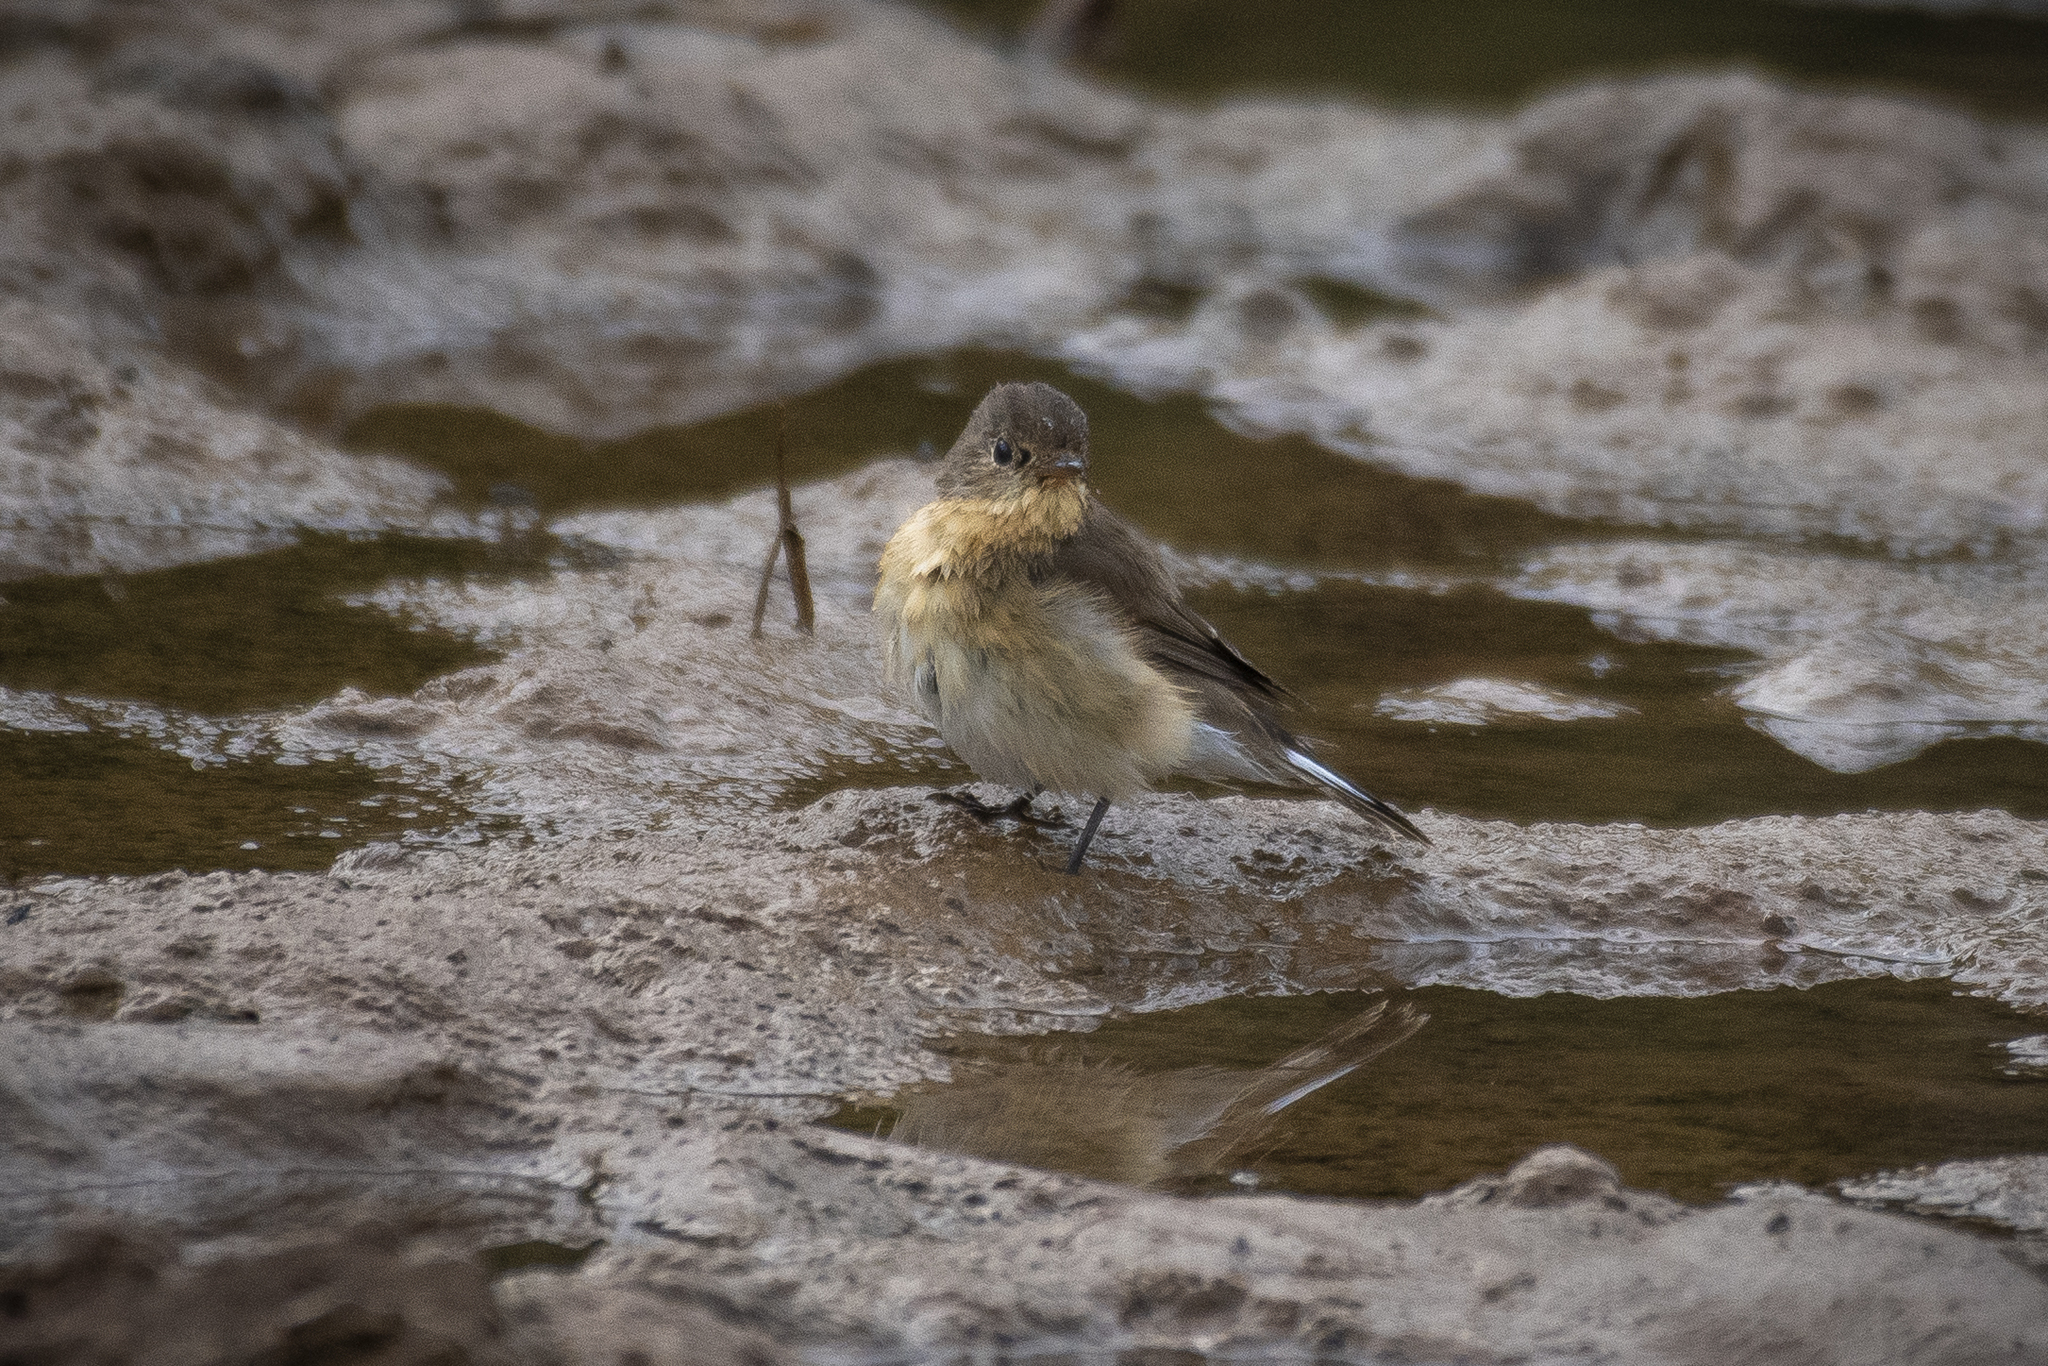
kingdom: Animalia
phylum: Chordata
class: Aves
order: Passeriformes
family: Muscicapidae
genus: Ficedula
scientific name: Ficedula parva
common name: Red-breasted flycatcher
